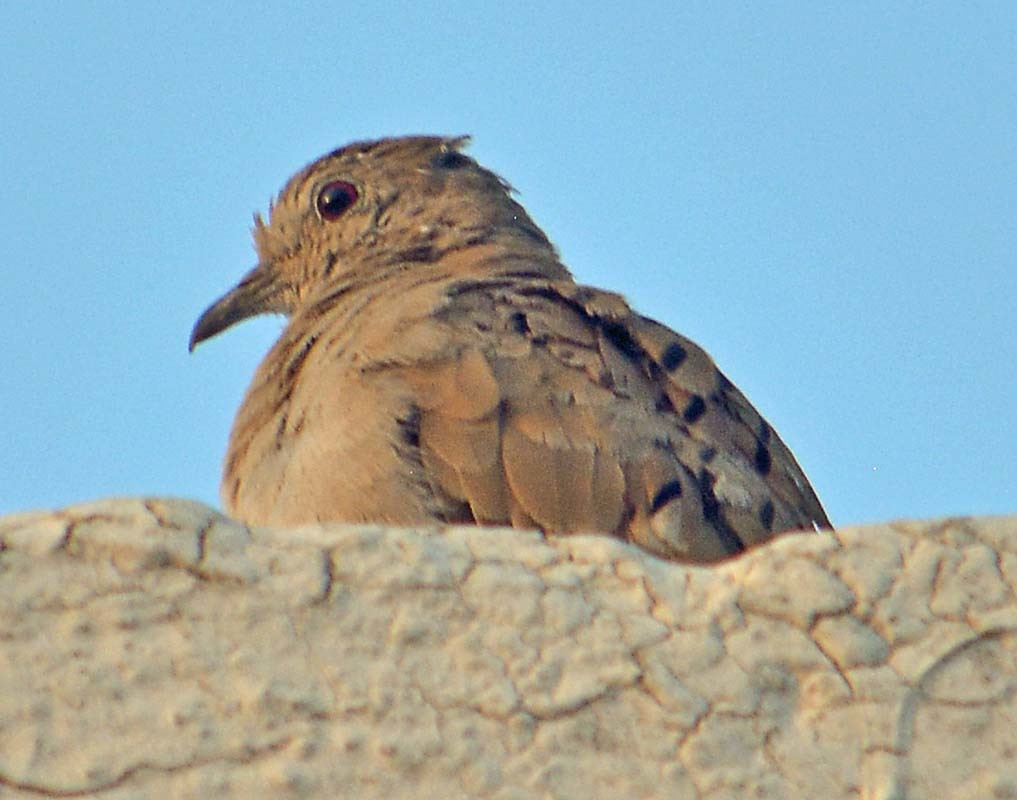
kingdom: Animalia
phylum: Chordata
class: Aves
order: Columbiformes
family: Columbidae
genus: Columbina
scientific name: Columbina talpacoti
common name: Ruddy ground dove
